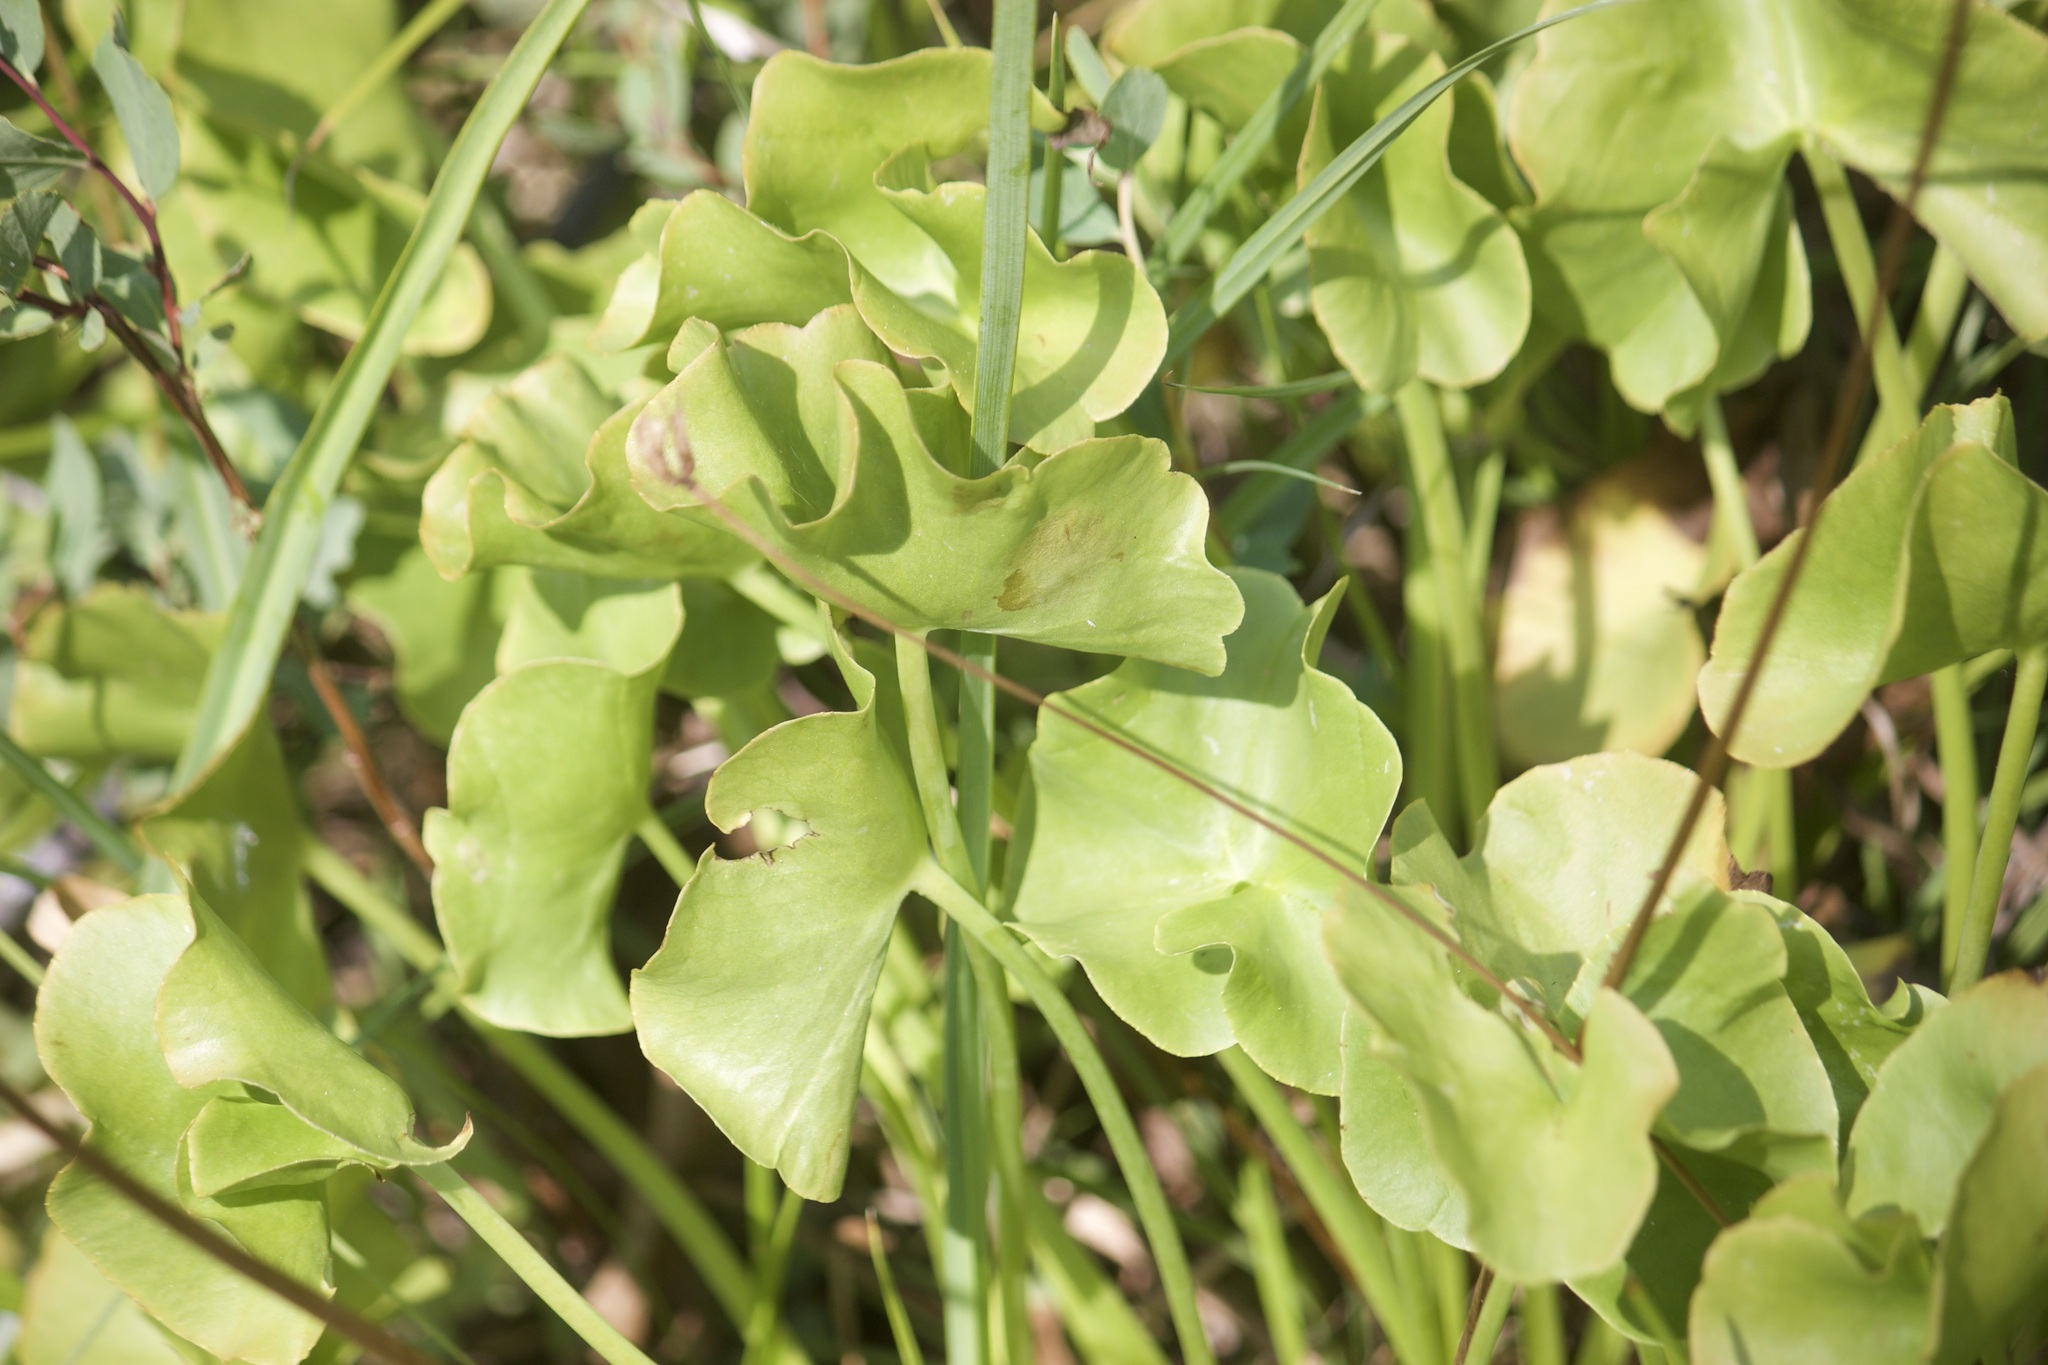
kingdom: Plantae
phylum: Tracheophyta
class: Magnoliopsida
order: Ranunculales
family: Ranunculaceae
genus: Caltha
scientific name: Caltha leptosepala
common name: Elkslip
